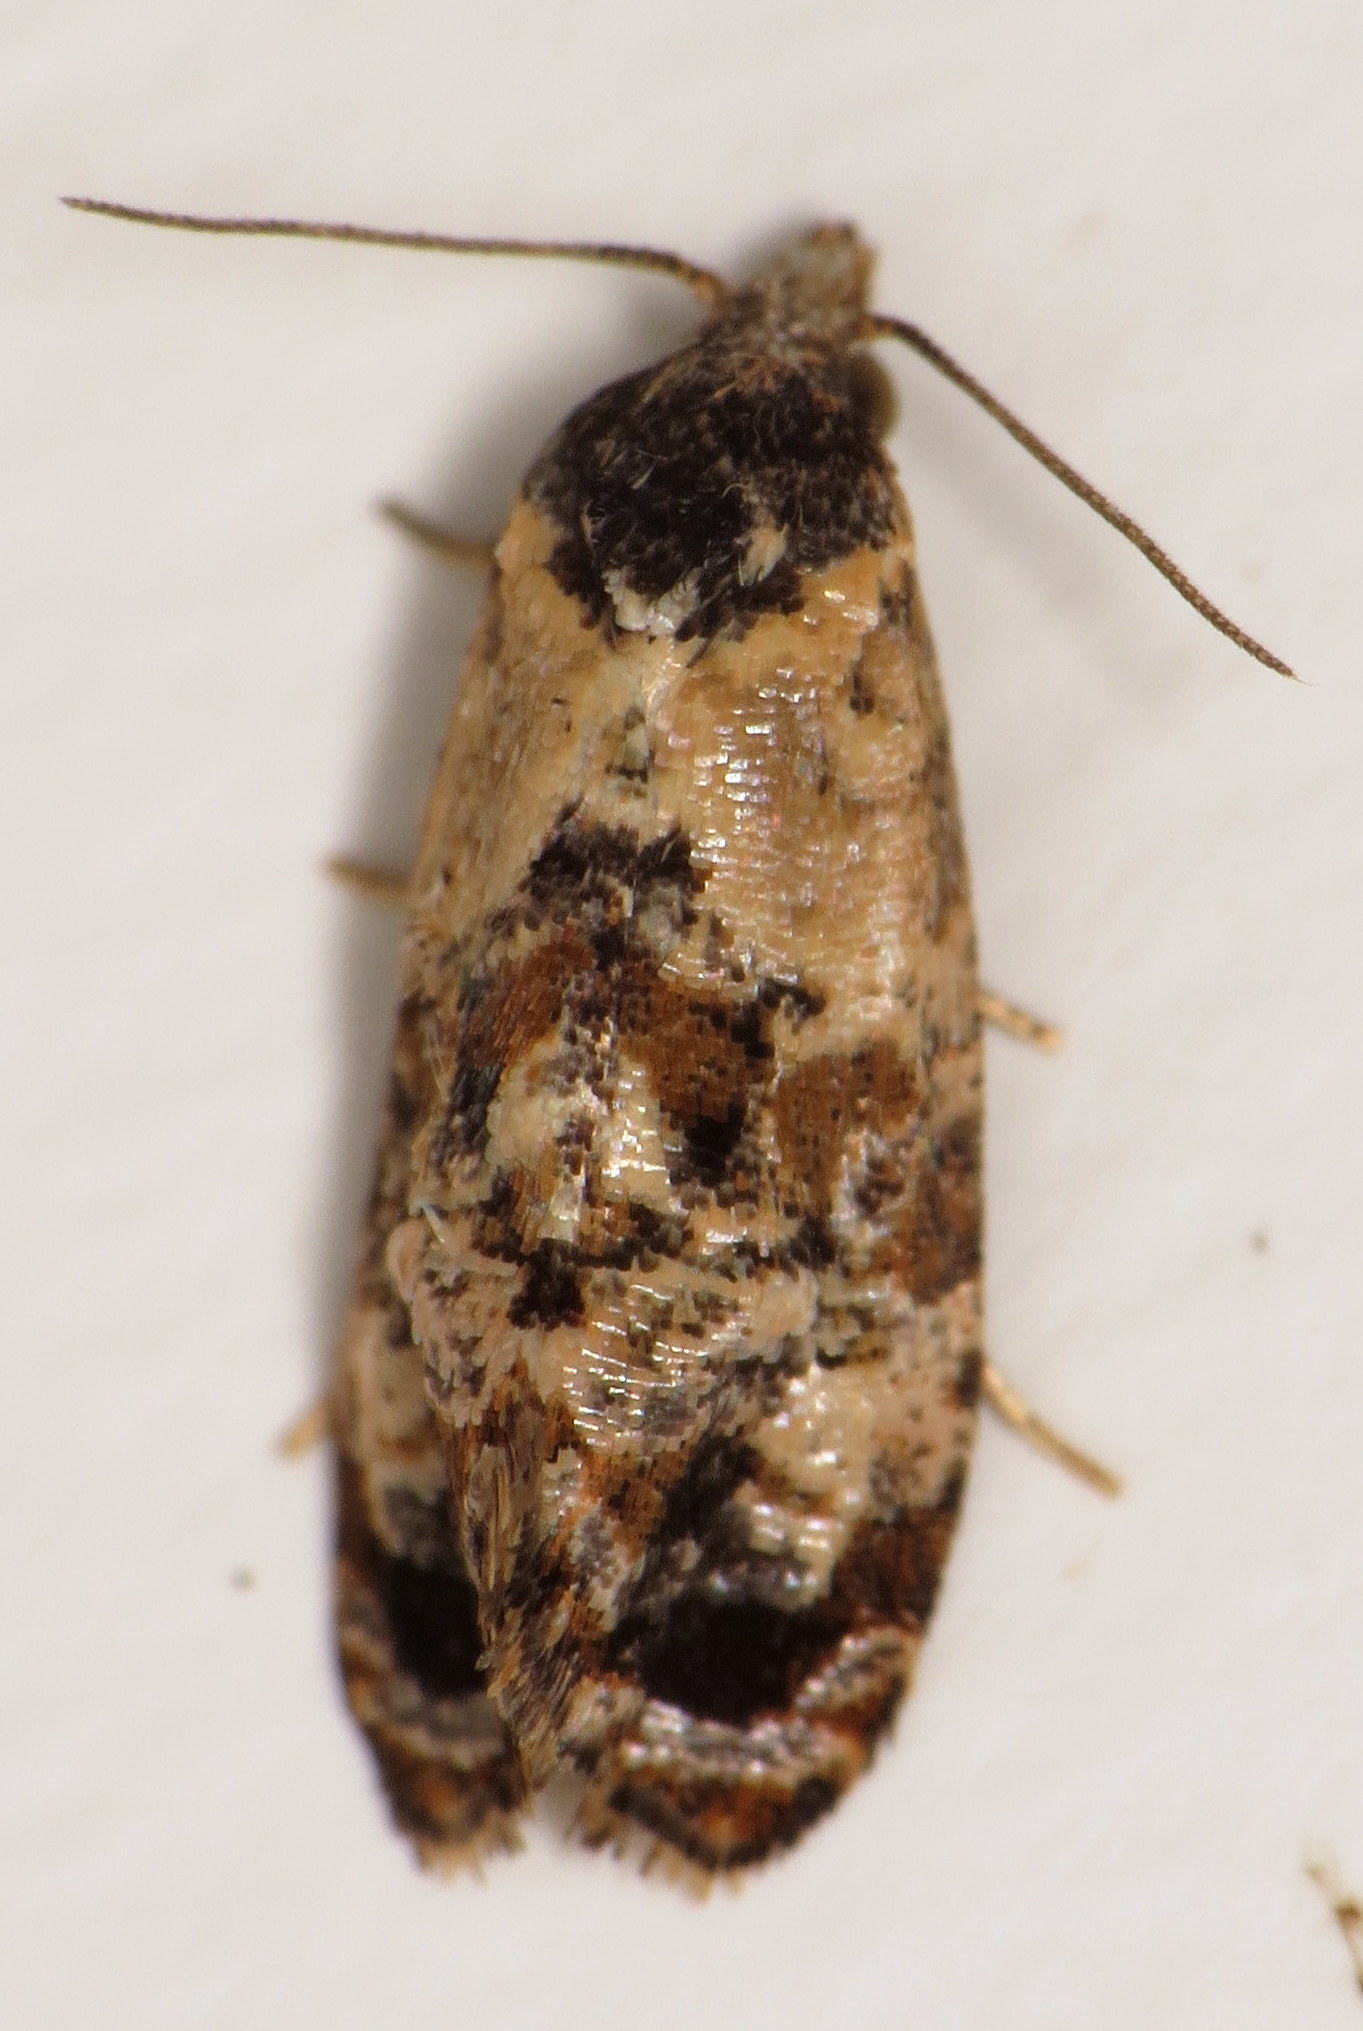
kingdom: Animalia
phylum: Arthropoda
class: Insecta
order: Lepidoptera
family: Tortricidae
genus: Cochylis
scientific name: Cochylis Cochylichroa hoffmanana
